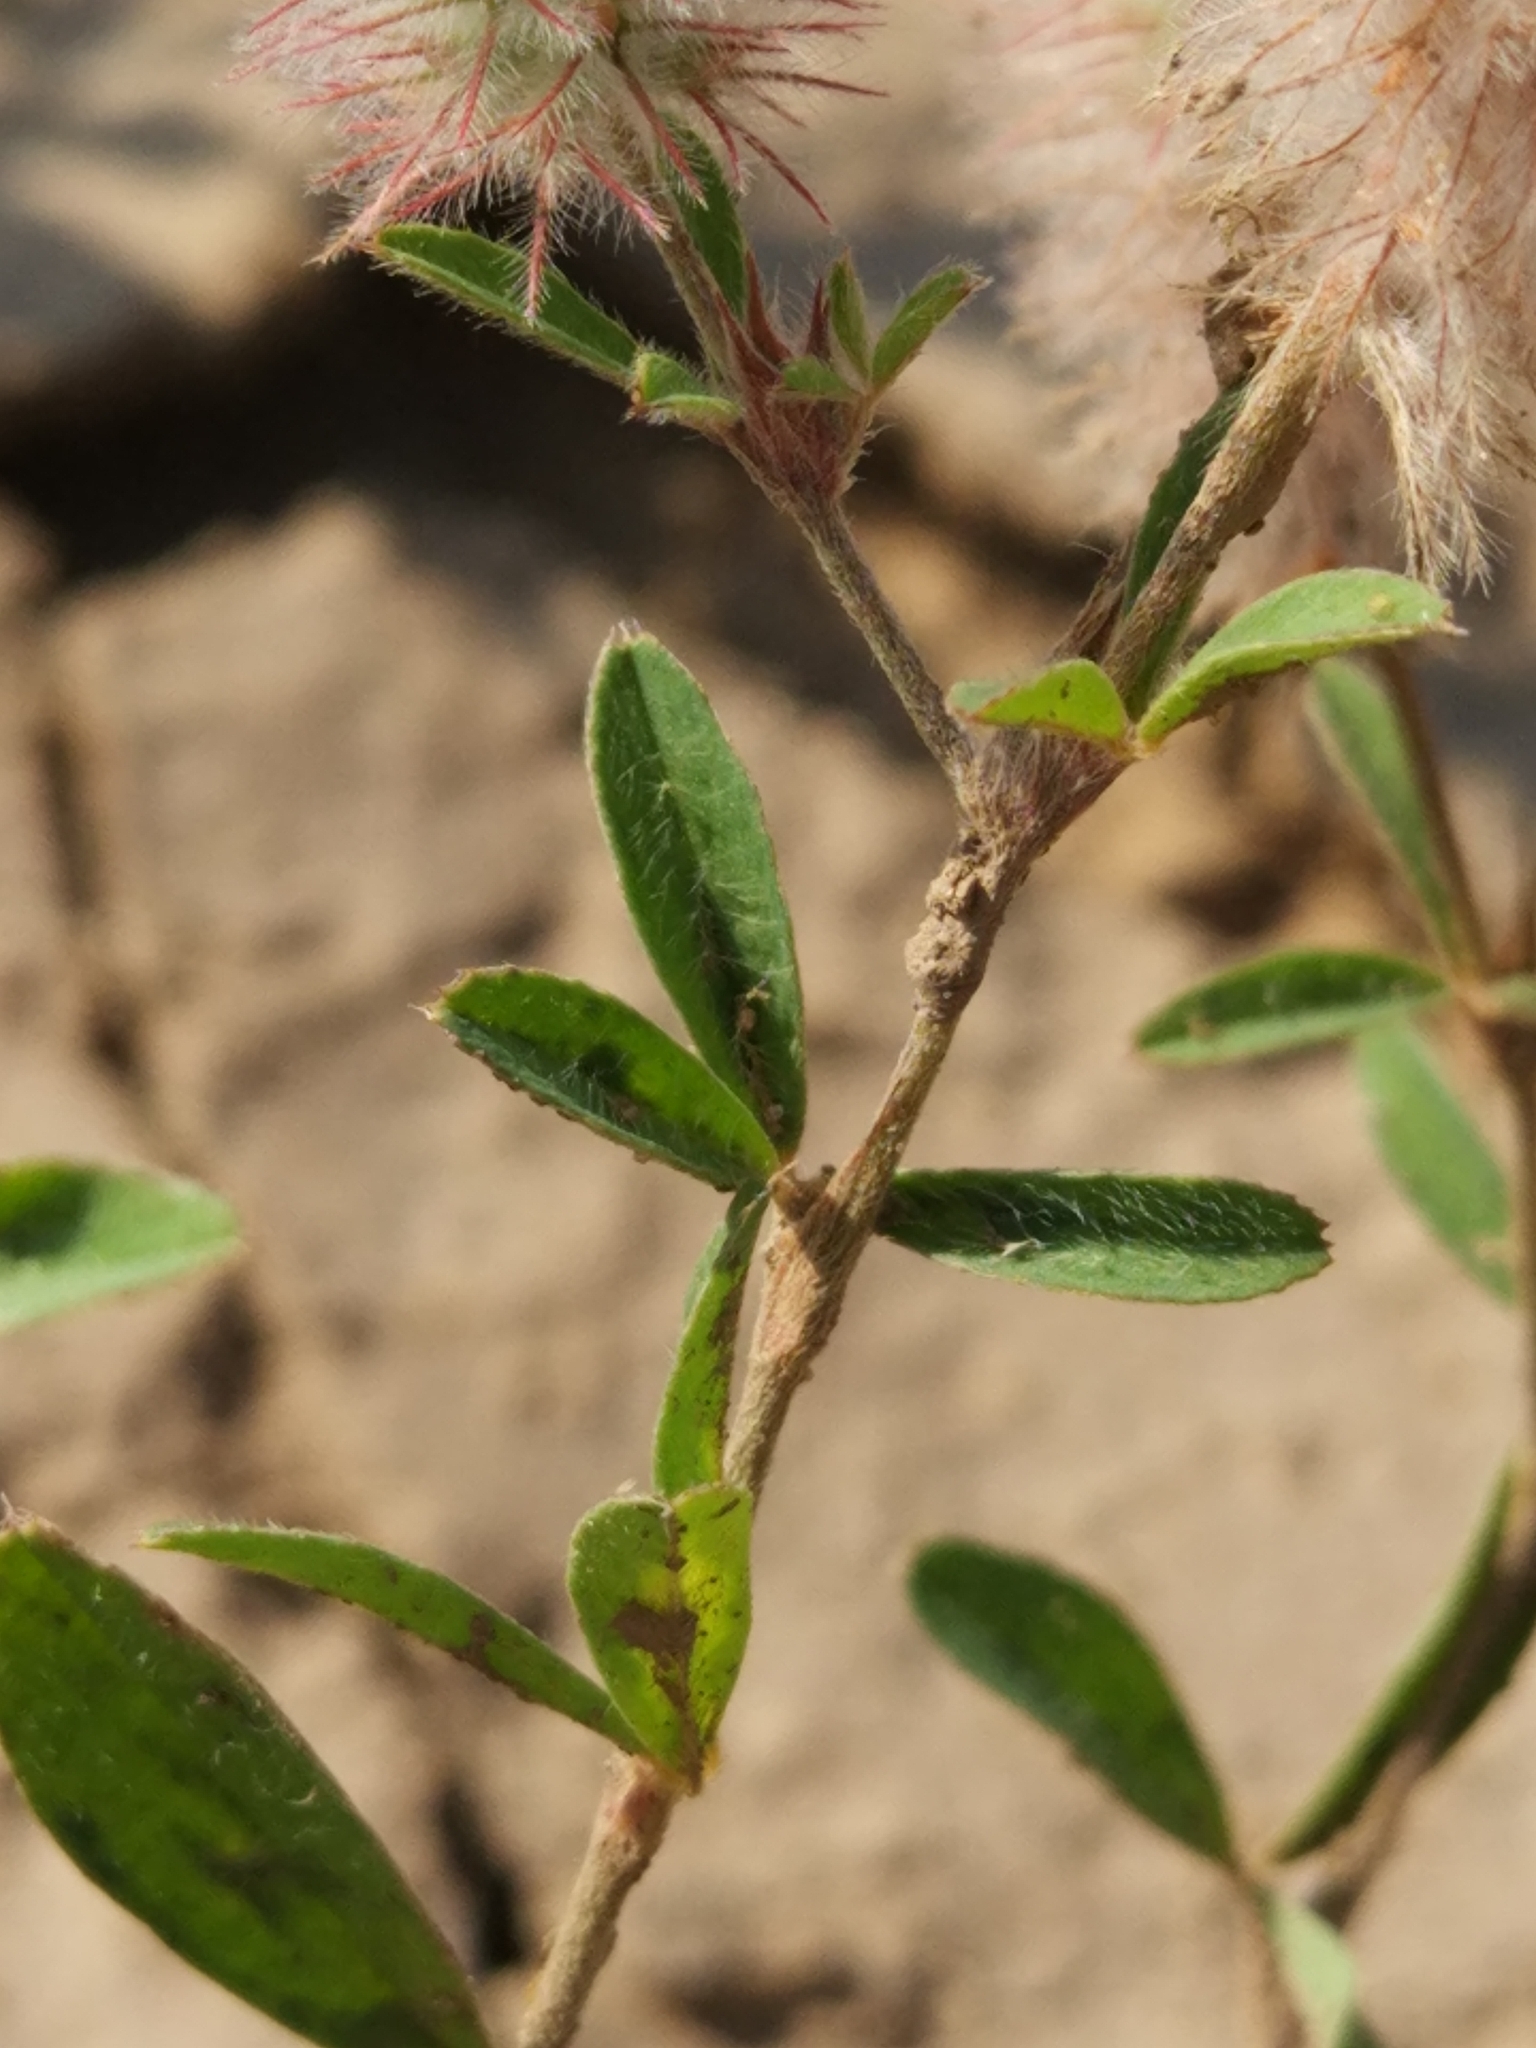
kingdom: Plantae
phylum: Tracheophyta
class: Magnoliopsida
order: Fabales
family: Fabaceae
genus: Trifolium
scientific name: Trifolium arvense
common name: Hare's-foot clover
